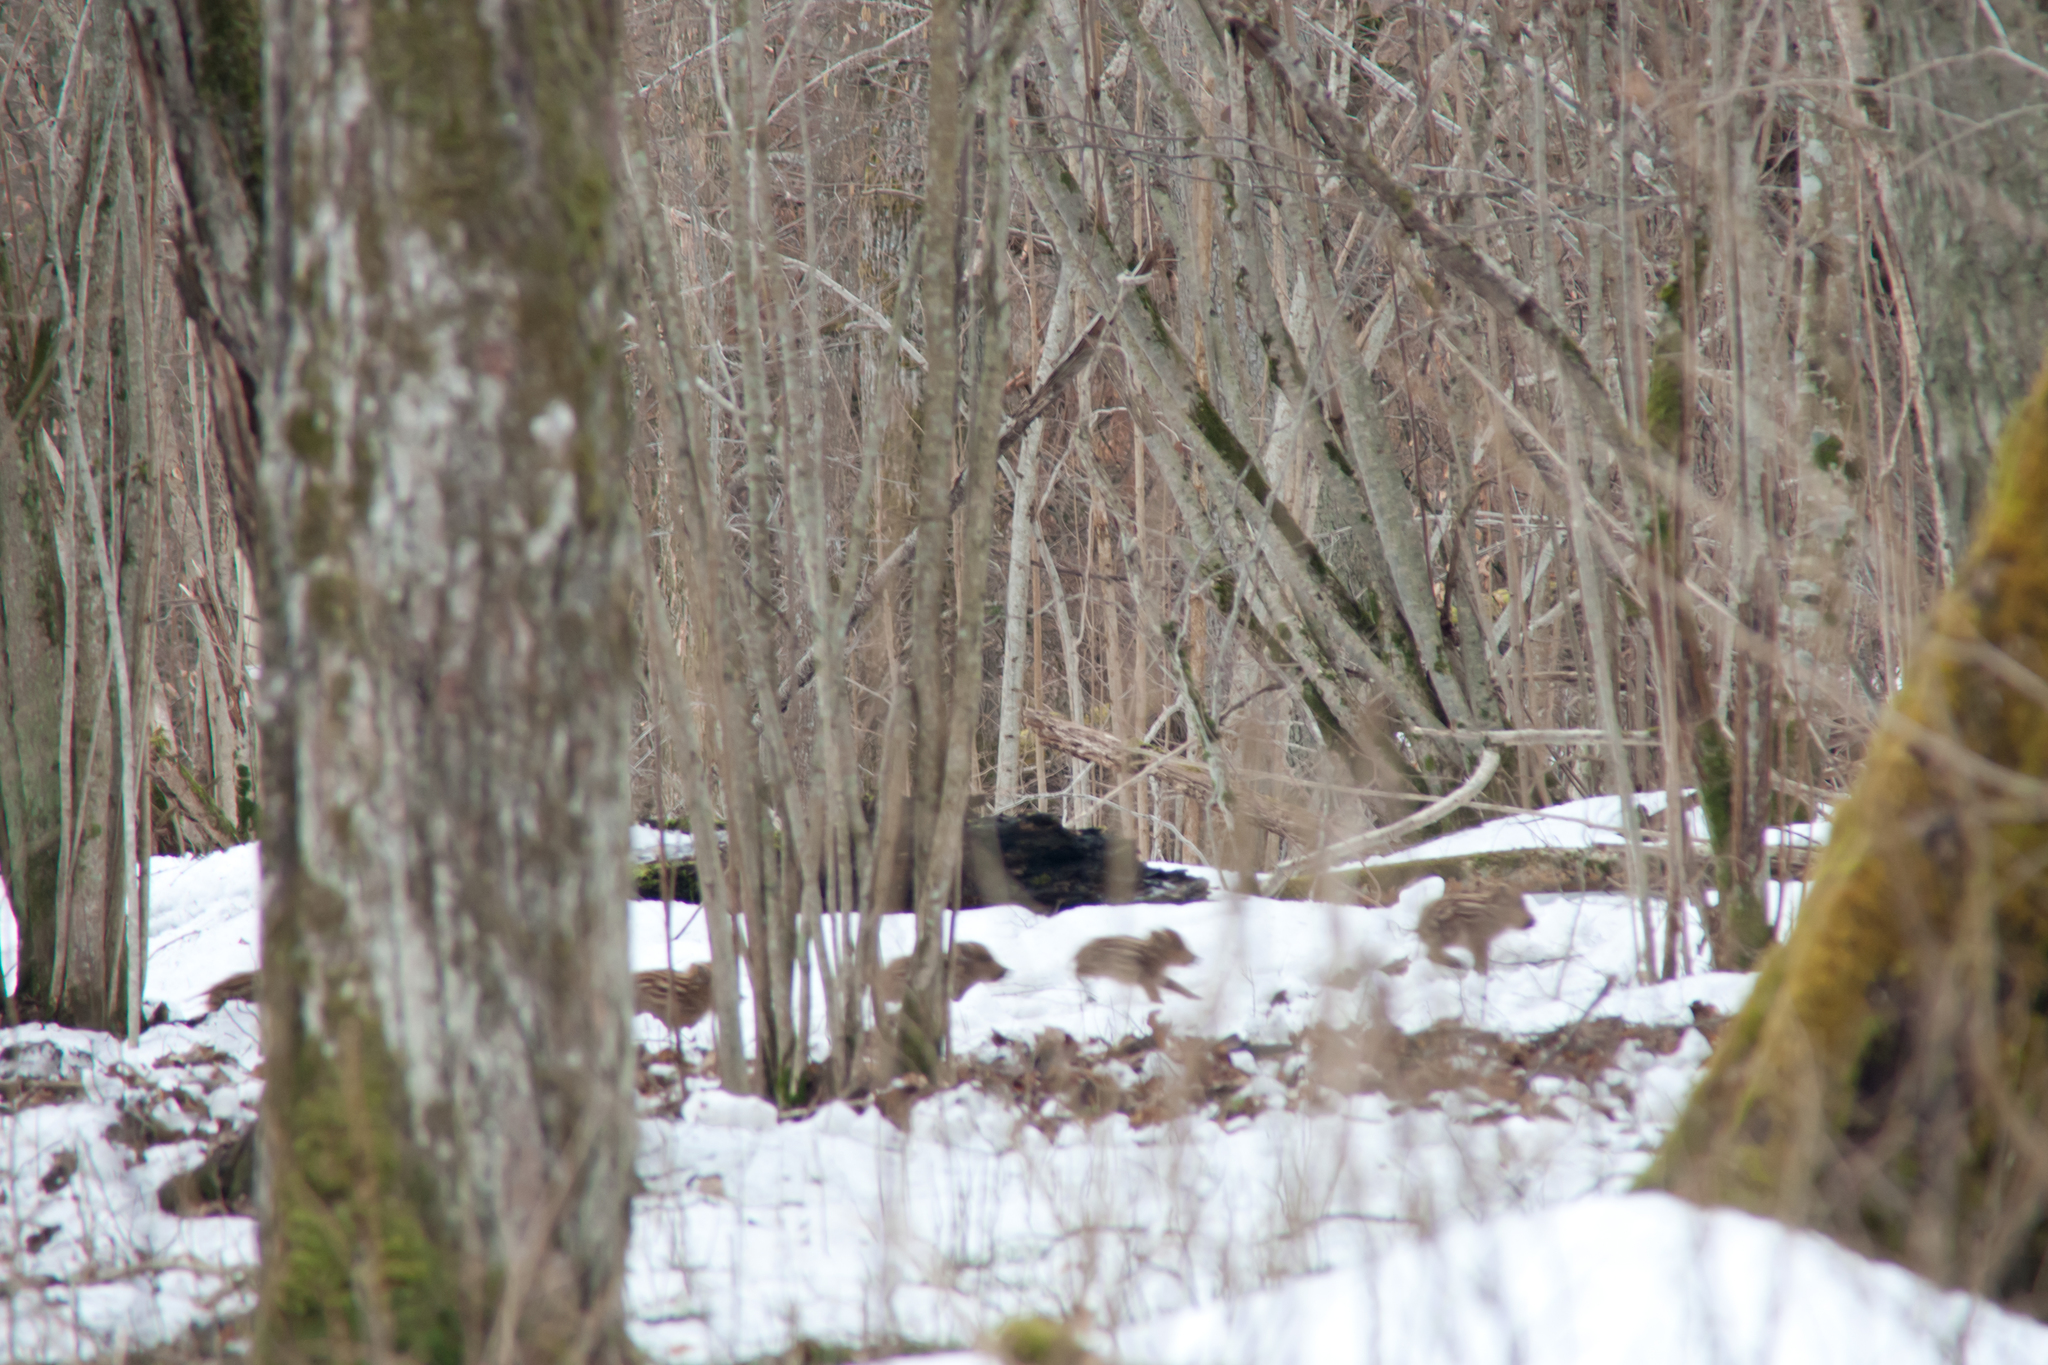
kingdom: Animalia
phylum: Chordata
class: Mammalia
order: Artiodactyla
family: Suidae
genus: Sus
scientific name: Sus scrofa
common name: Wild boar
